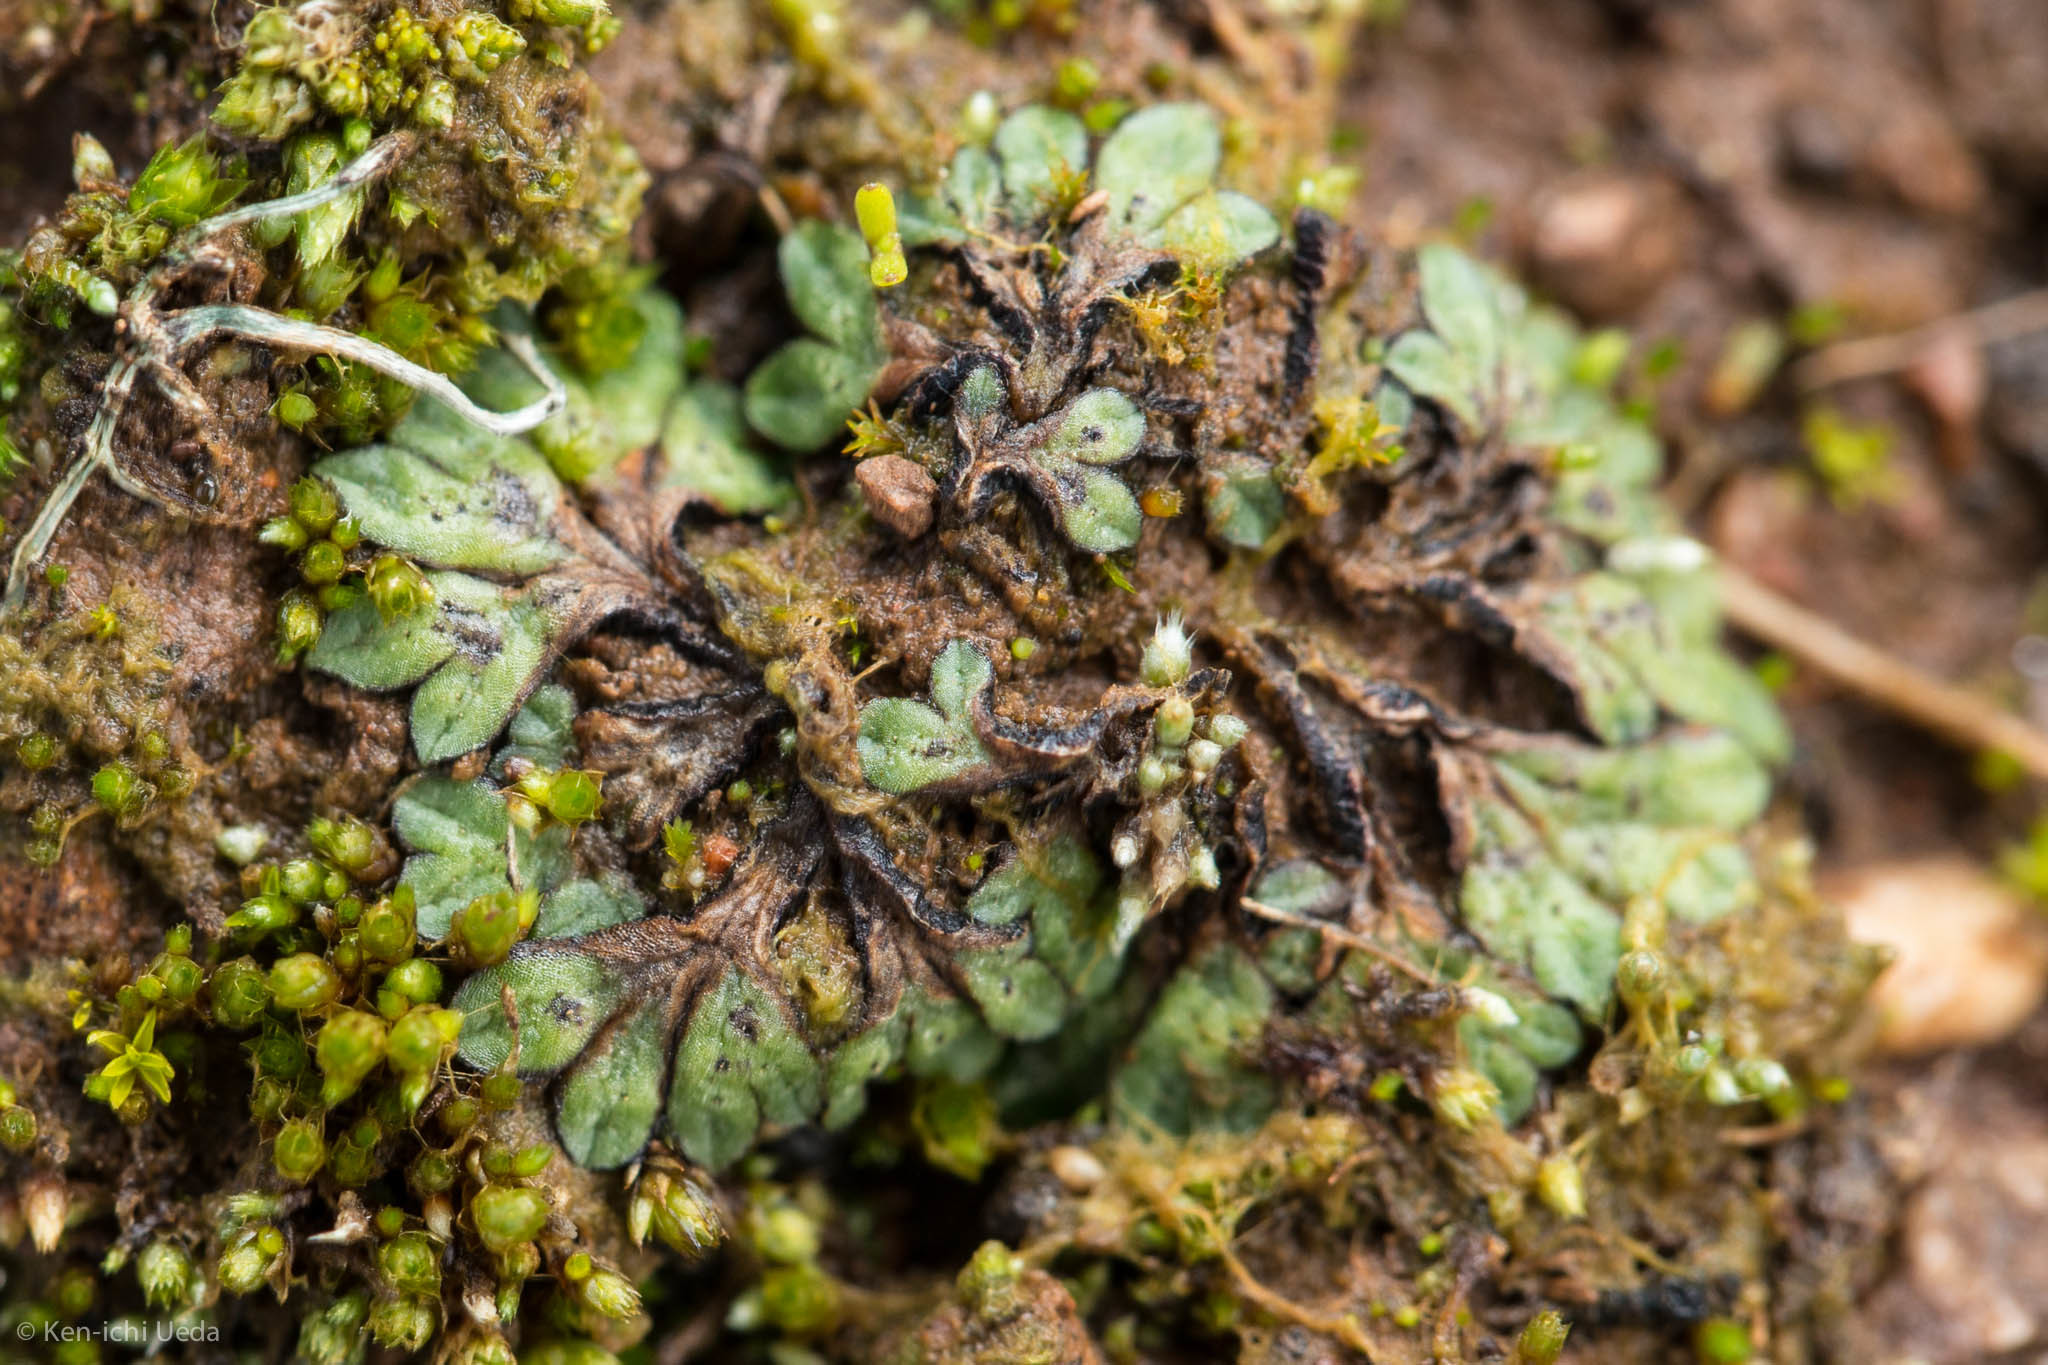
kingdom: Plantae
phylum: Marchantiophyta
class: Marchantiopsida
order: Marchantiales
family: Ricciaceae
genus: Riccia
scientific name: Riccia nigrella
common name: Black crystalwort
